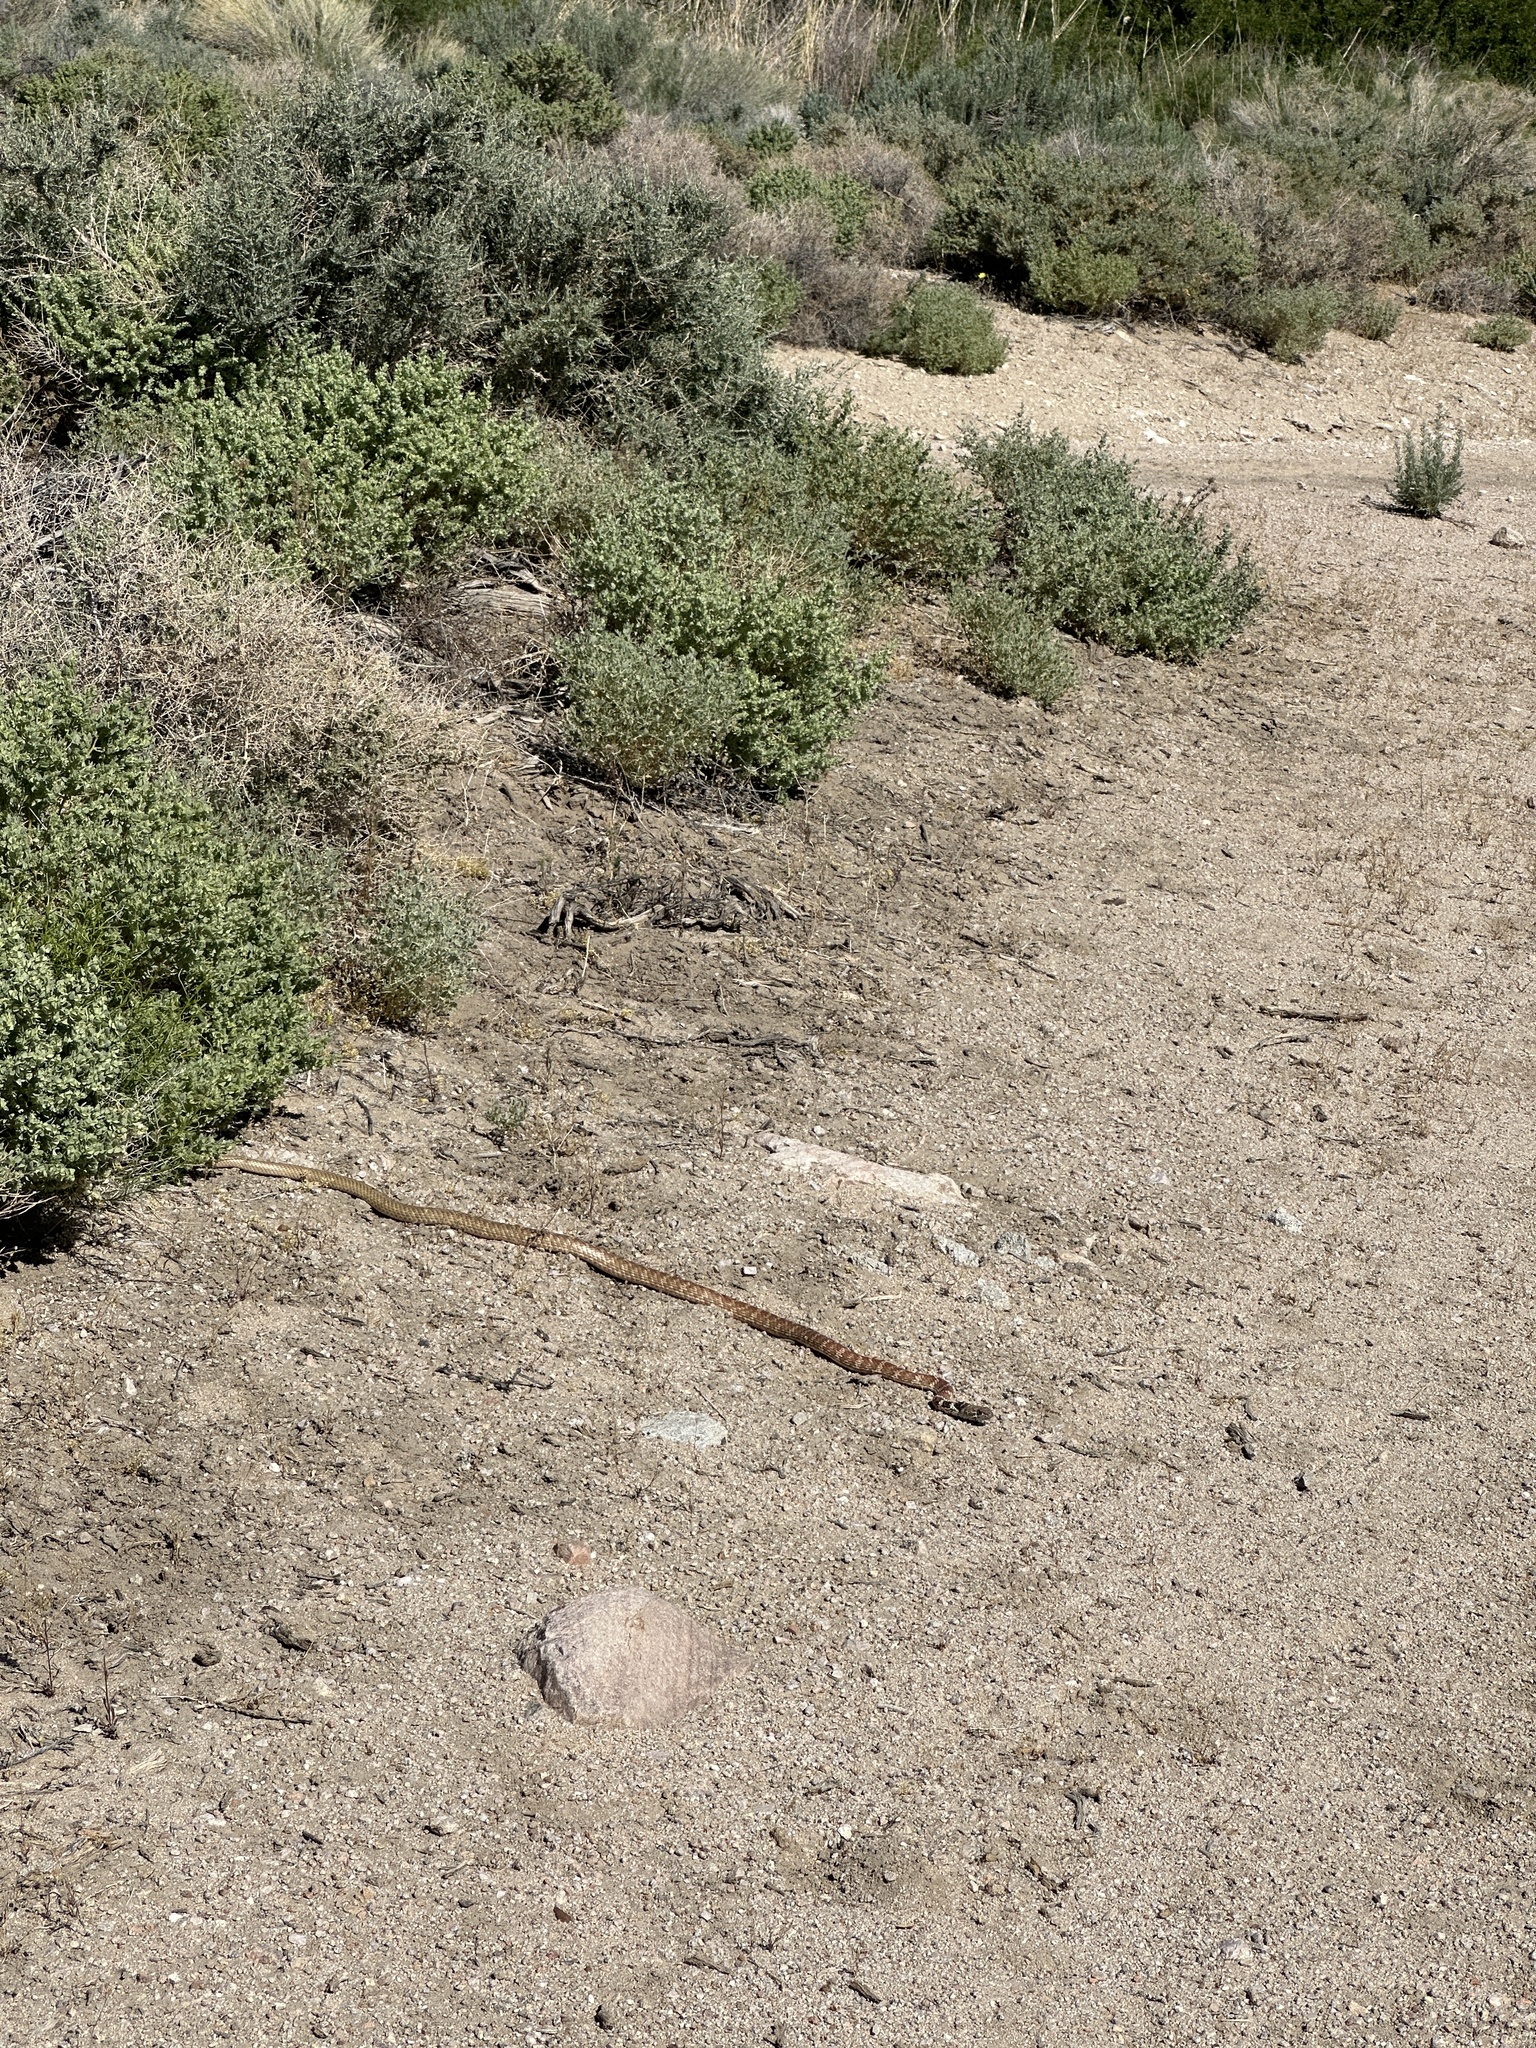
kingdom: Animalia
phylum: Chordata
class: Squamata
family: Colubridae
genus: Masticophis
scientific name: Masticophis flagellum
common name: Coachwhip
